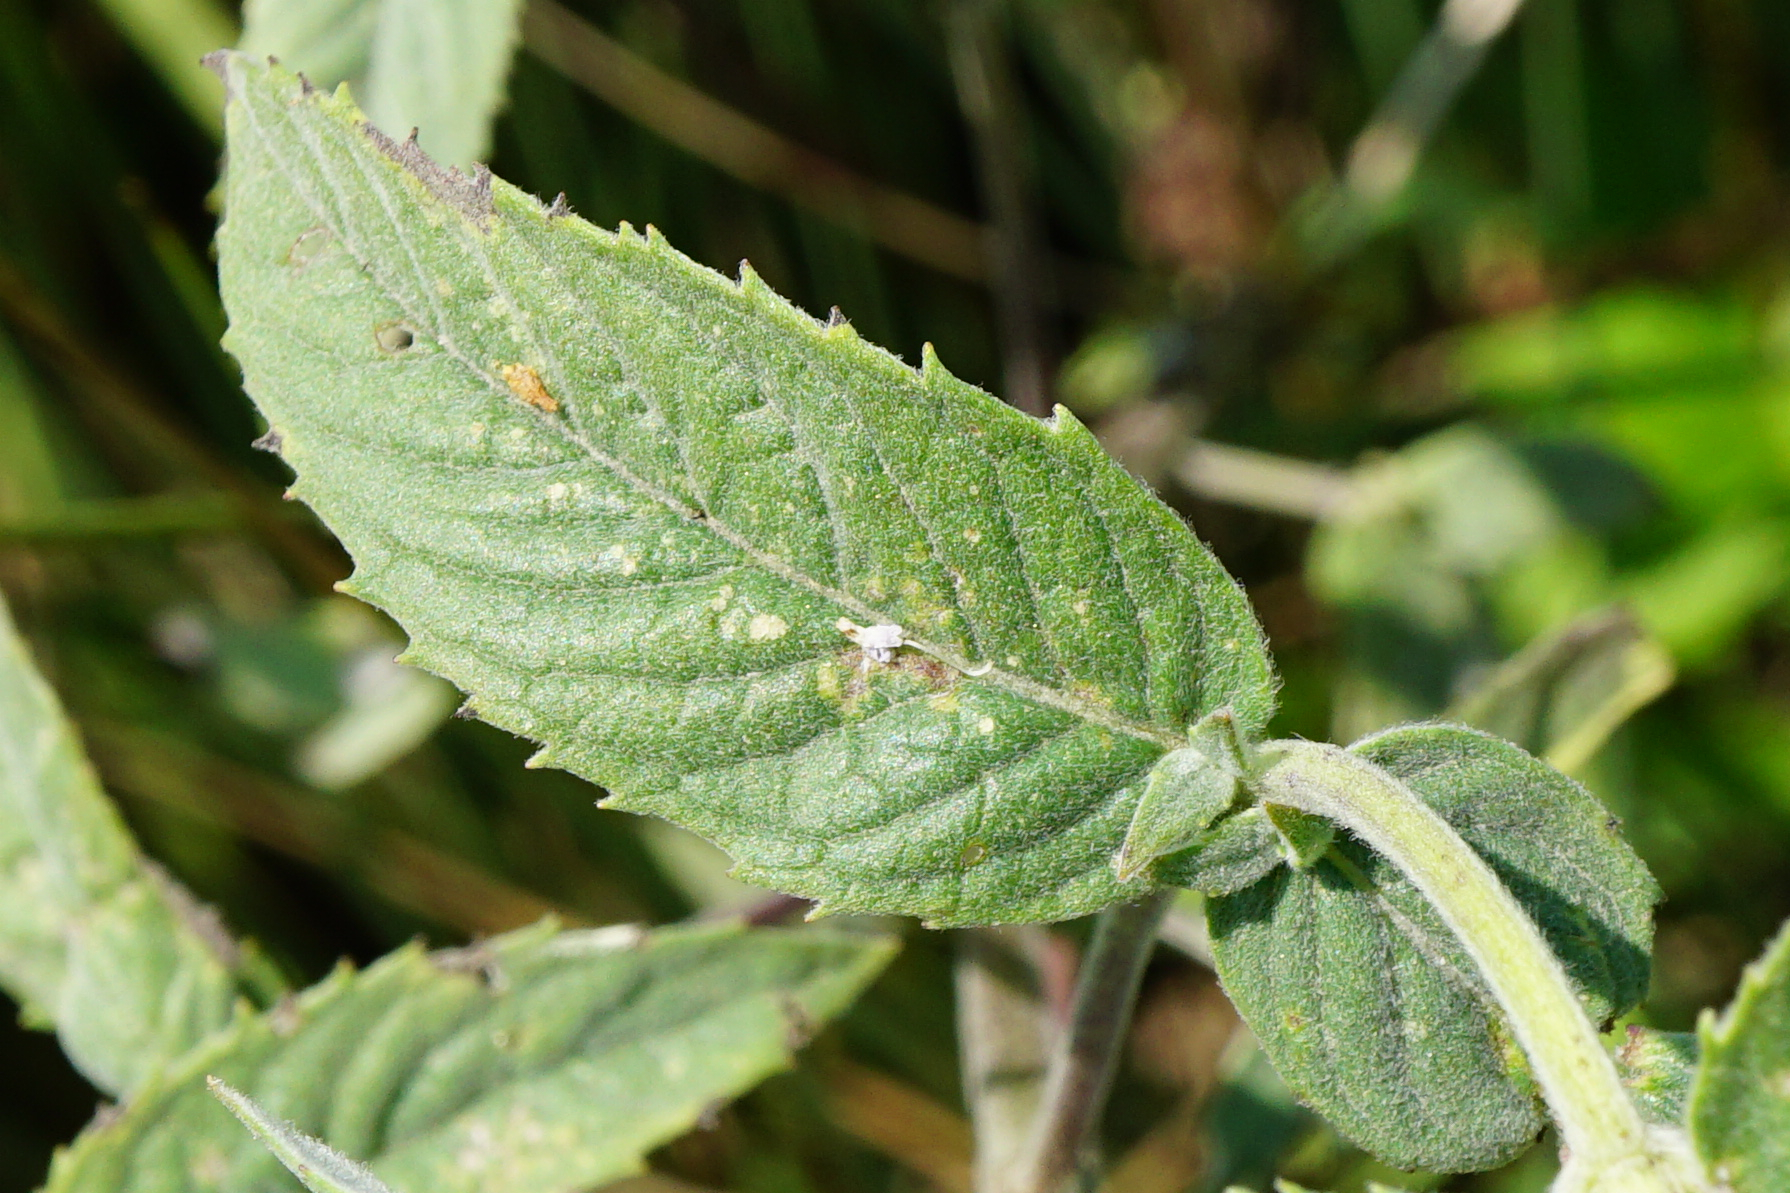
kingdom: Plantae
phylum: Tracheophyta
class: Magnoliopsida
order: Lamiales
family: Lamiaceae
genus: Mentha
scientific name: Mentha longifolia
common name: Horse mint
